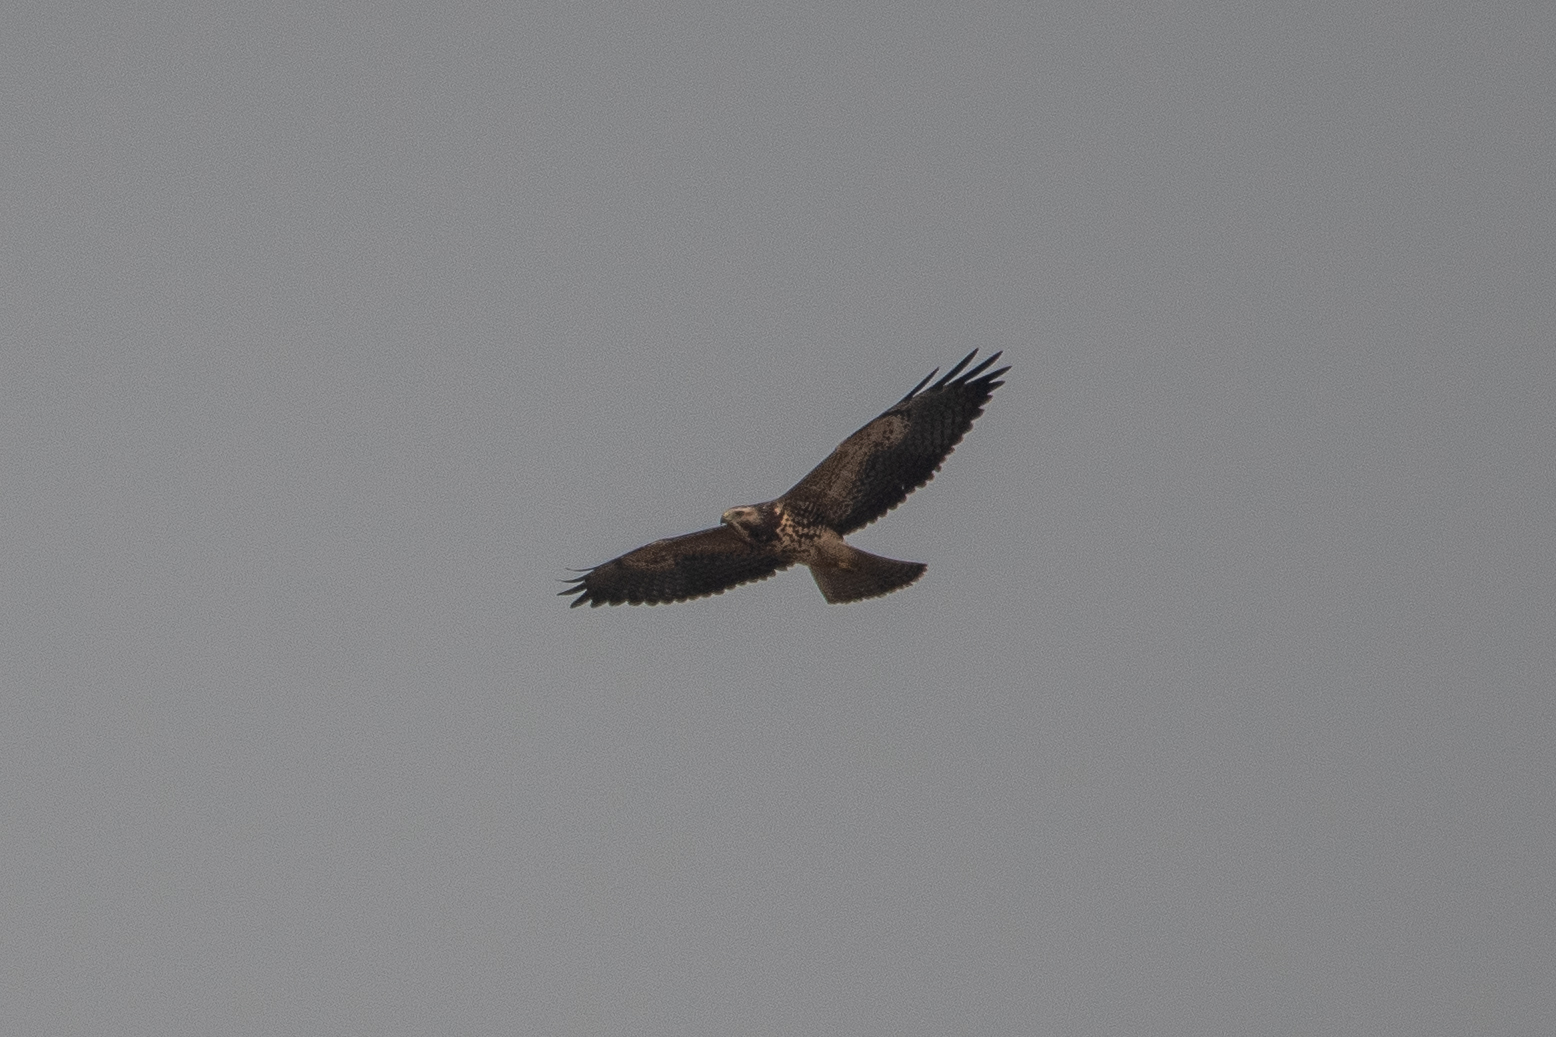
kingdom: Animalia
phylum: Chordata
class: Aves
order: Accipitriformes
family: Accipitridae
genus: Buteo
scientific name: Buteo jamaicensis
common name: Red-tailed hawk
